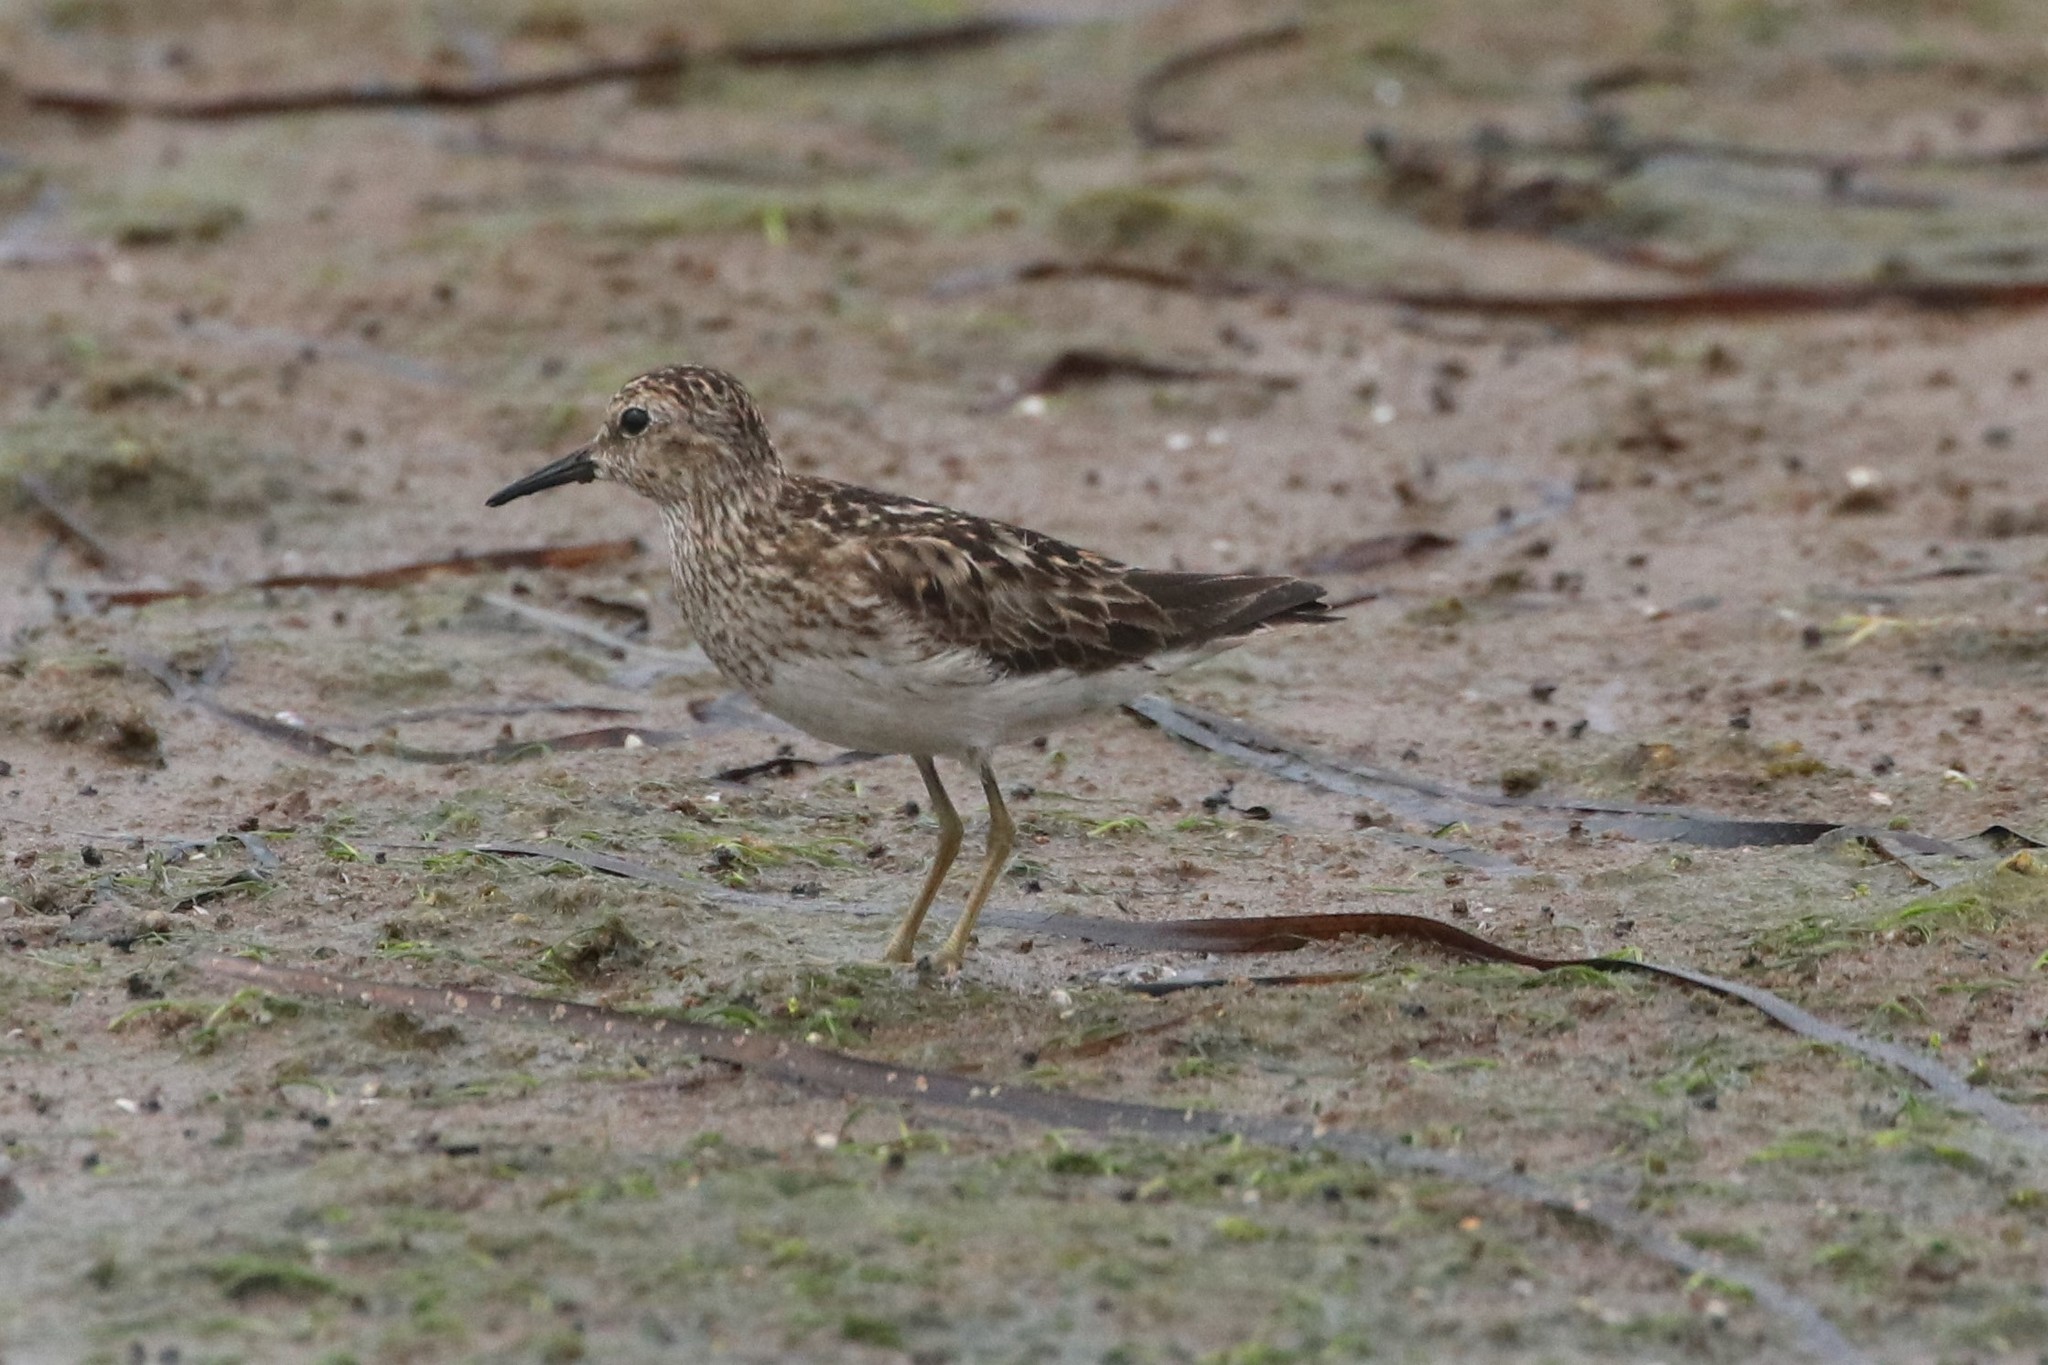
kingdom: Animalia
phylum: Chordata
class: Aves
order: Charadriiformes
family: Scolopacidae
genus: Calidris
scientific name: Calidris minutilla
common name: Least sandpiper
